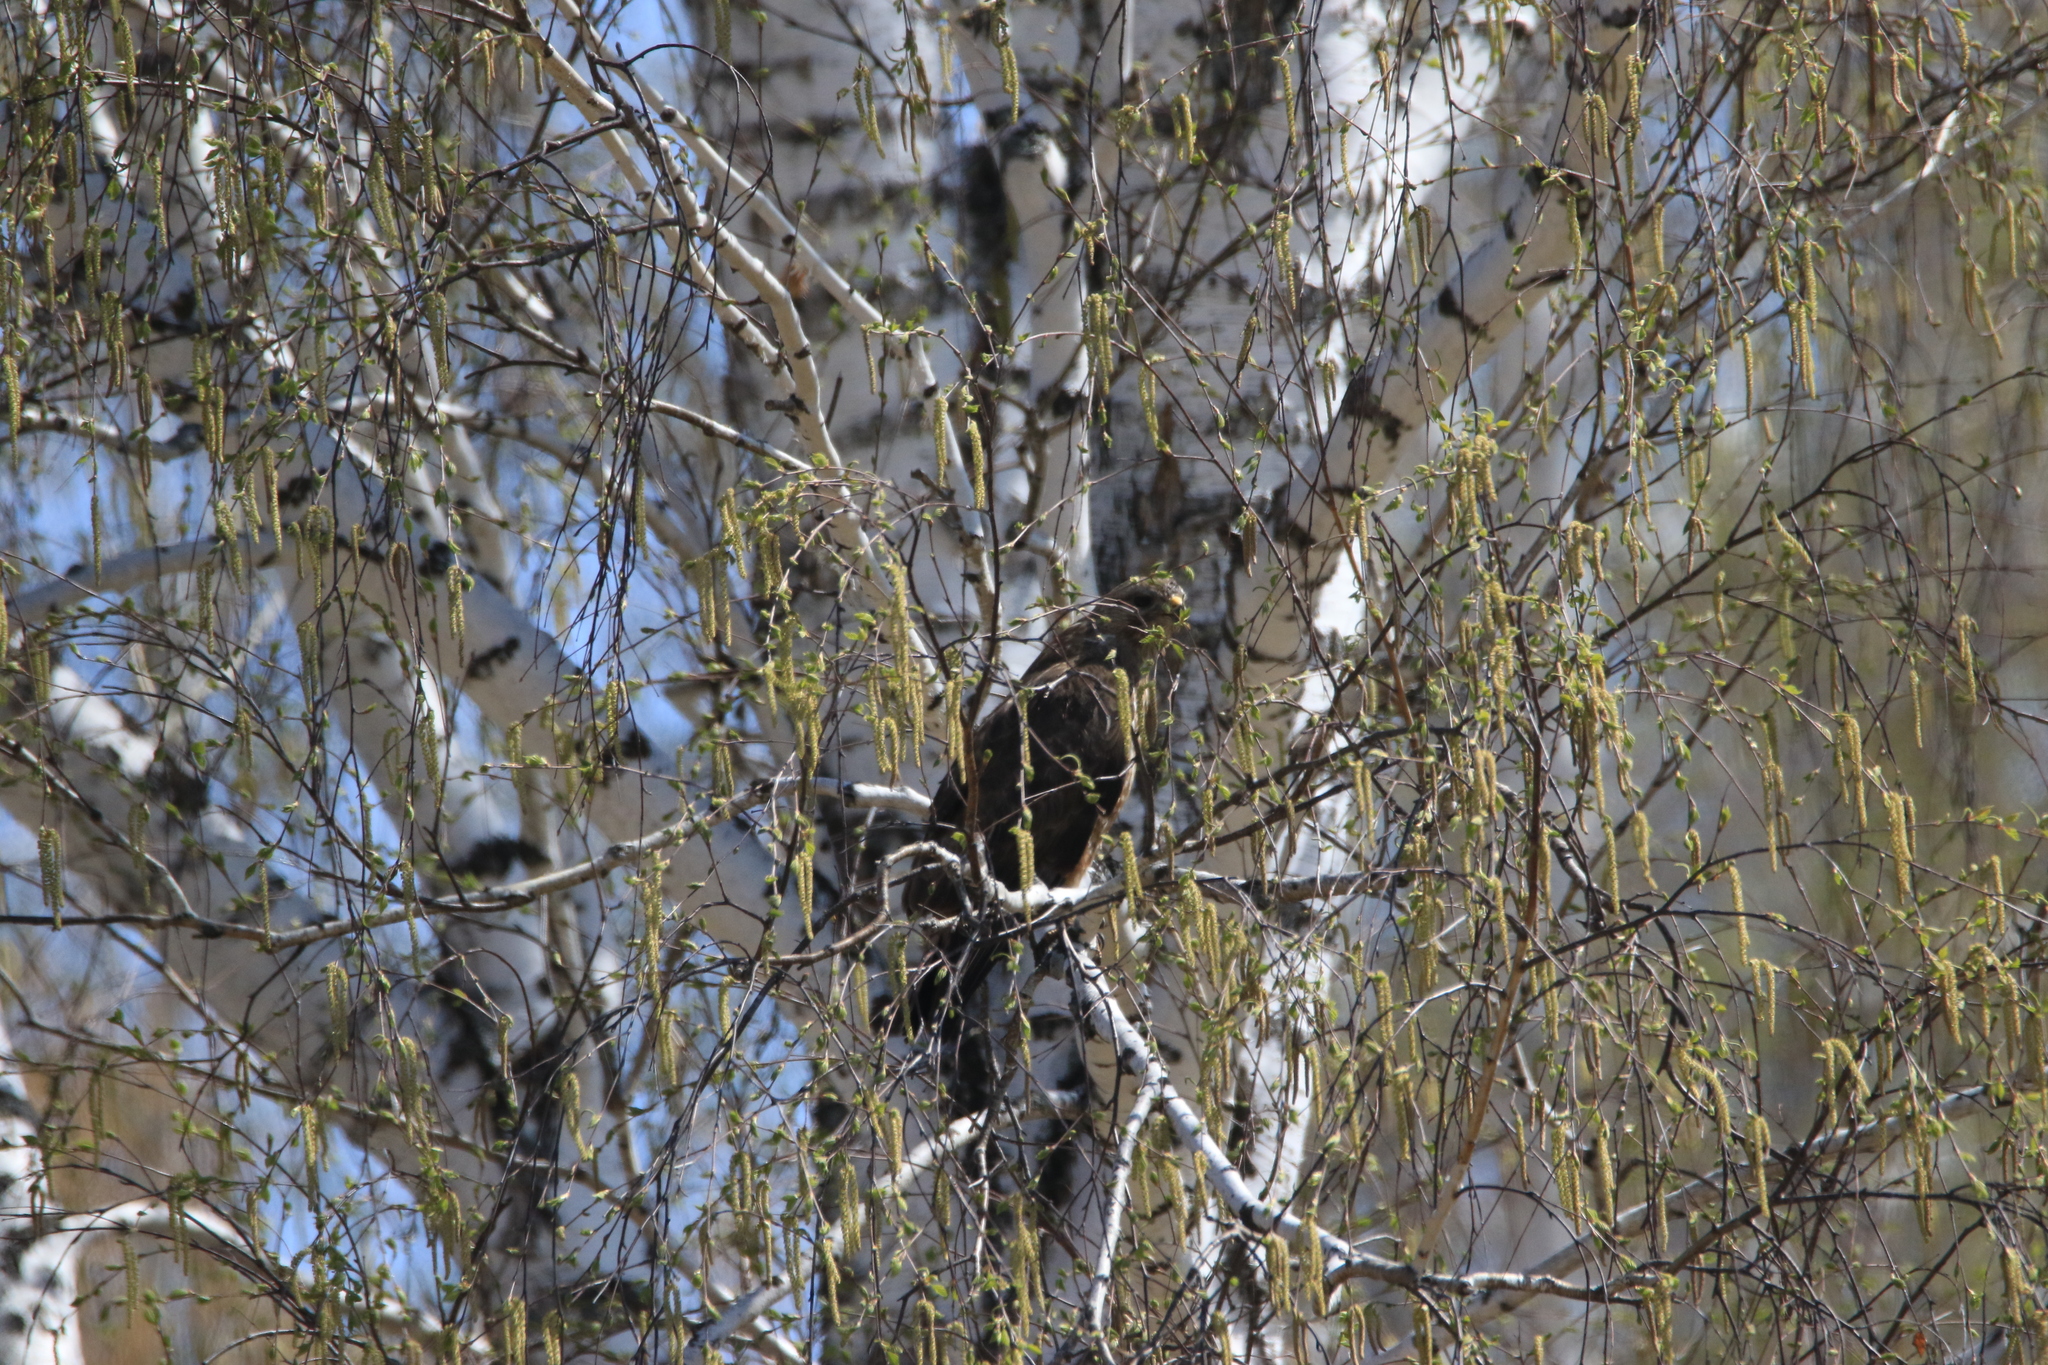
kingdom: Animalia
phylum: Chordata
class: Aves
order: Accipitriformes
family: Accipitridae
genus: Buteo
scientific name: Buteo buteo
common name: Common buzzard
